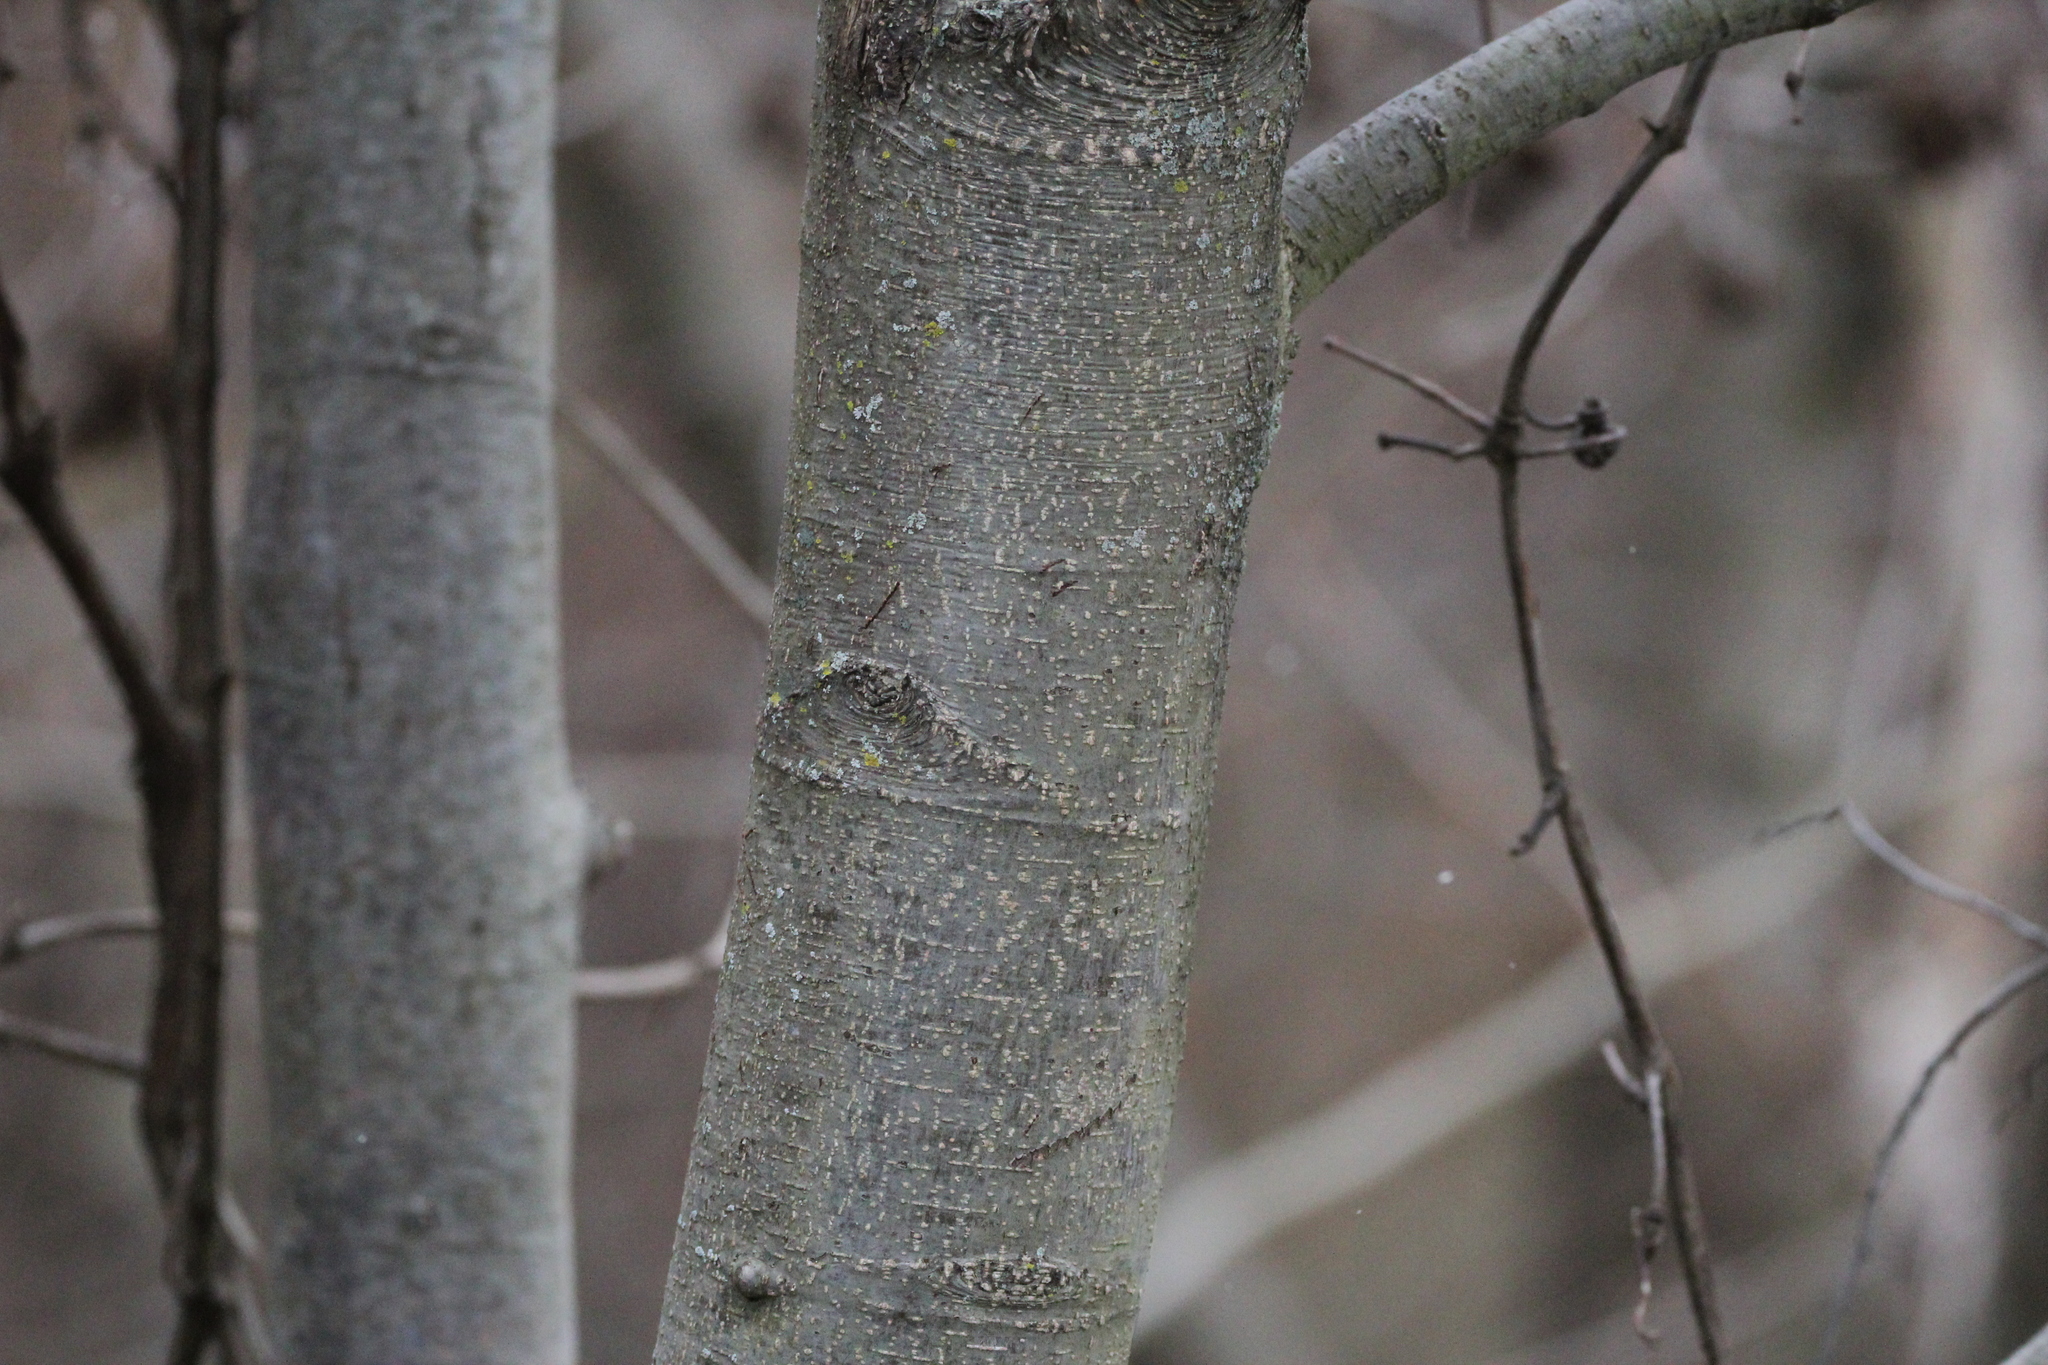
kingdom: Plantae
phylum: Tracheophyta
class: Magnoliopsida
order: Fagales
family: Betulaceae
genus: Alnus
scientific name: Alnus glutinosa
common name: Black alder
